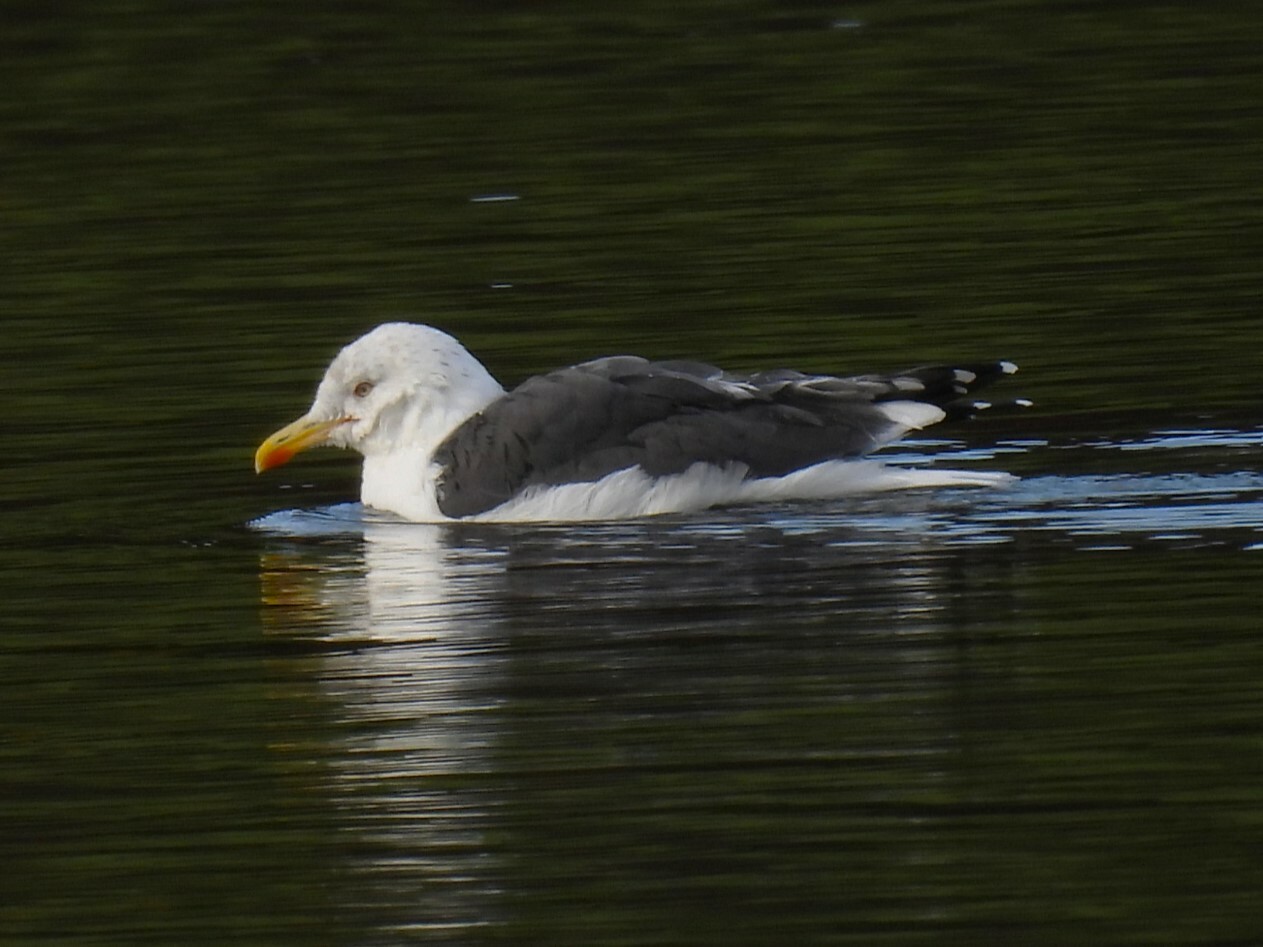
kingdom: Animalia
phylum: Chordata
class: Aves
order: Charadriiformes
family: Laridae
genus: Larus
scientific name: Larus fuscus
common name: Lesser black-backed gull
